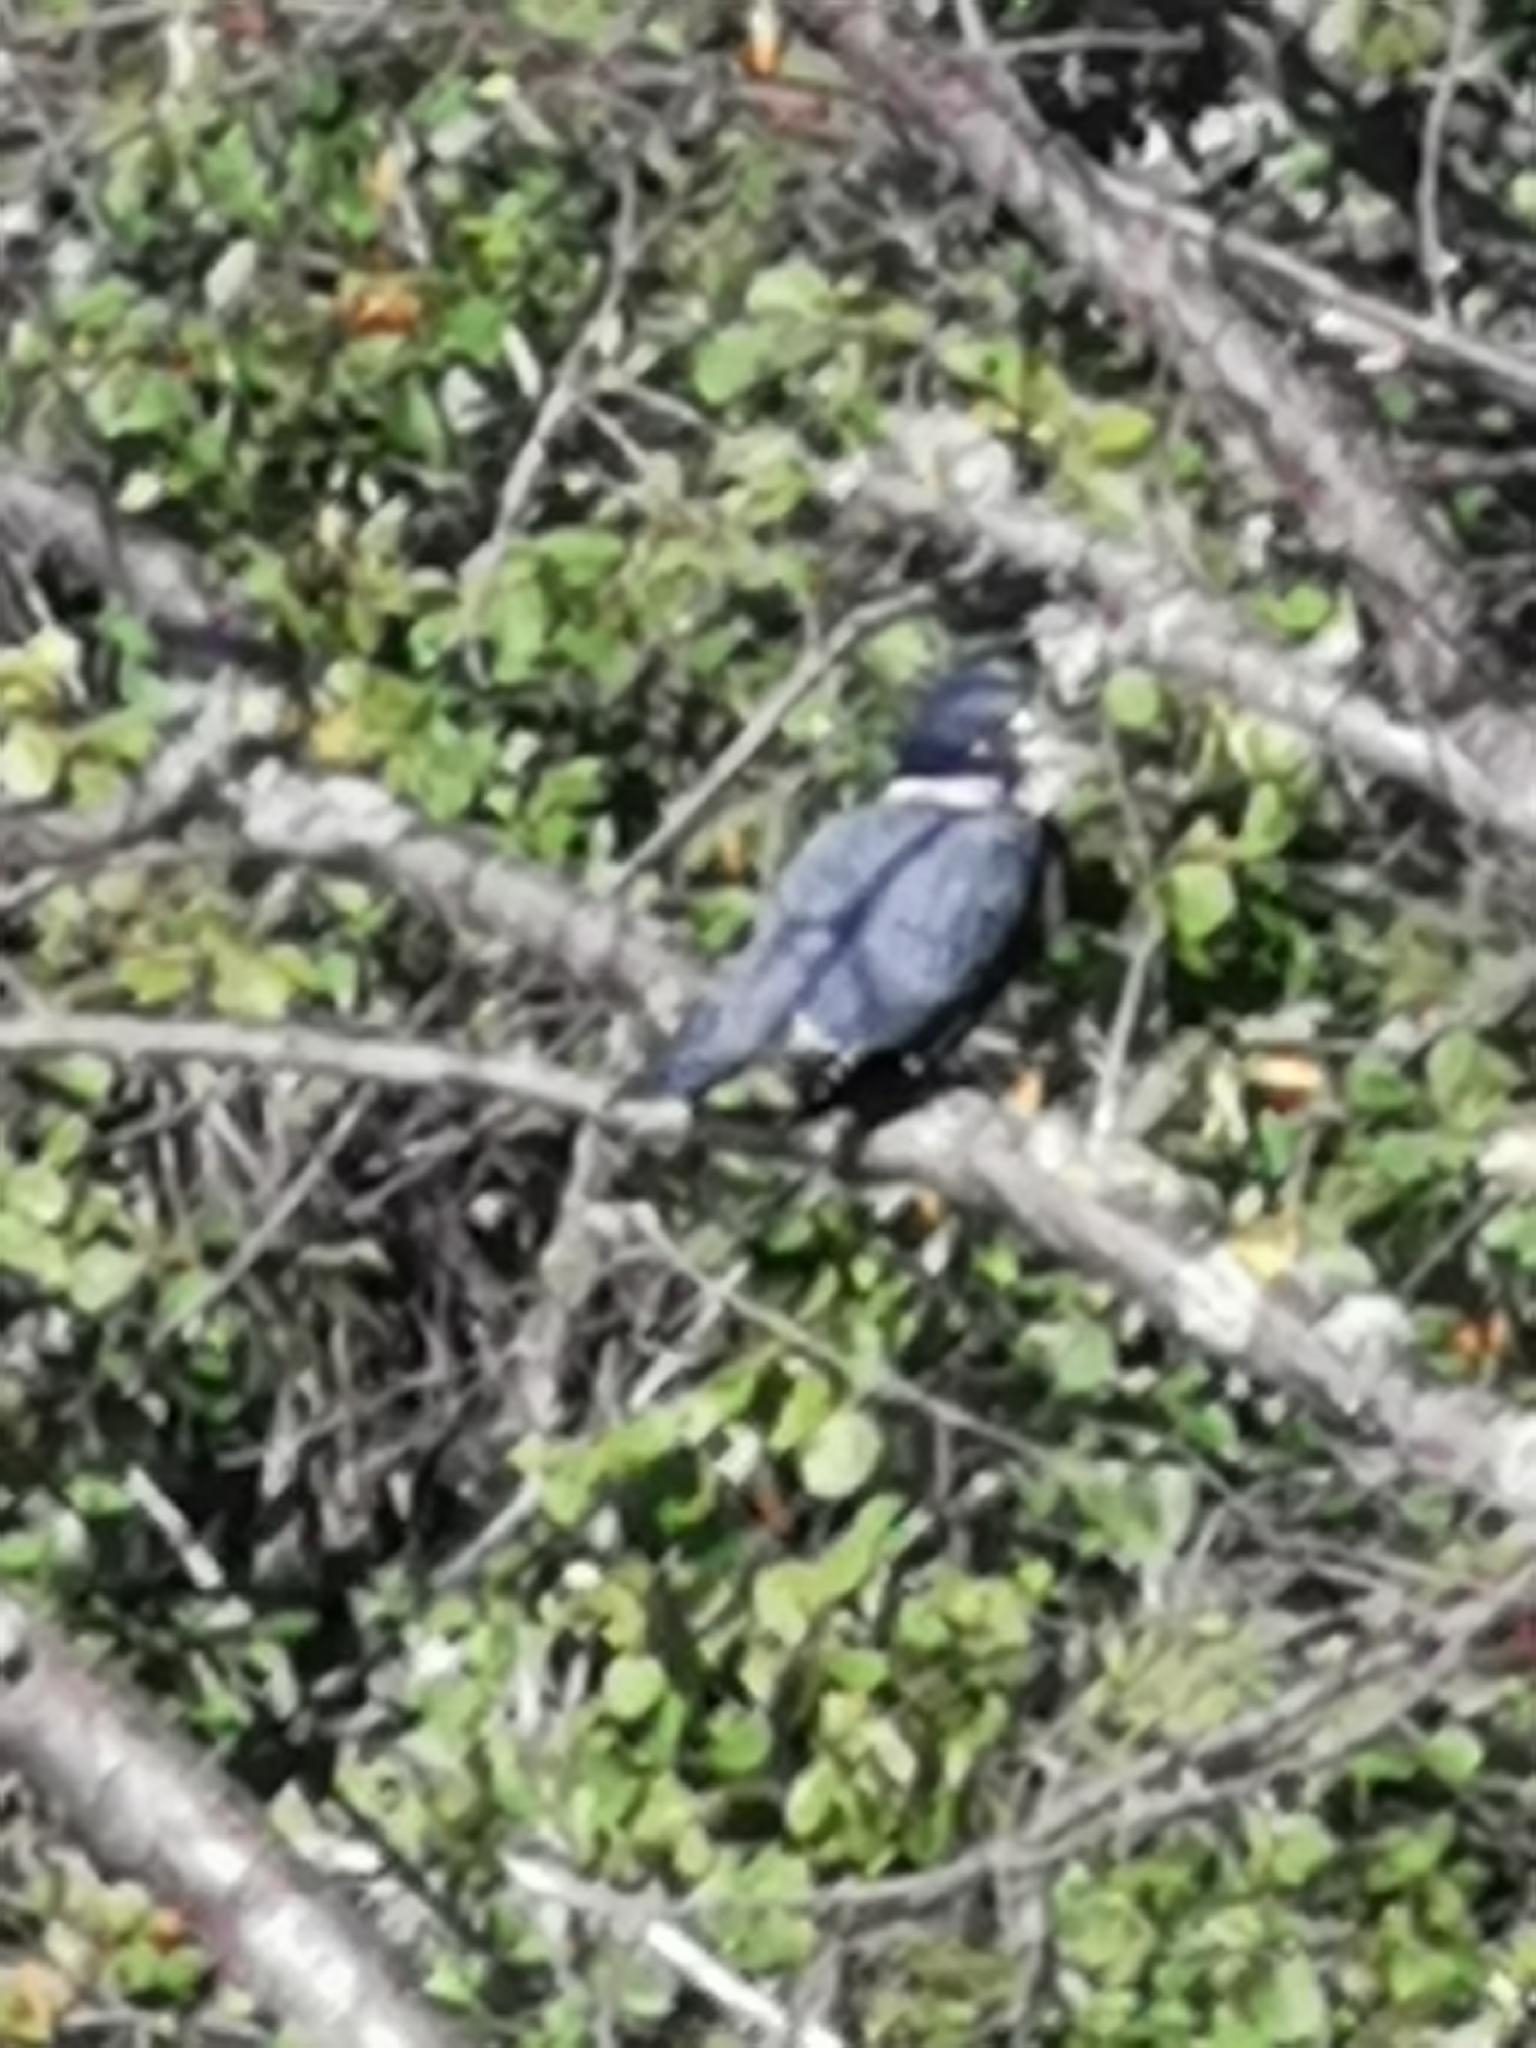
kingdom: Animalia
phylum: Chordata
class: Aves
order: Coraciiformes
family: Alcedinidae
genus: Megaceryle
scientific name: Megaceryle alcyon
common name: Belted kingfisher
